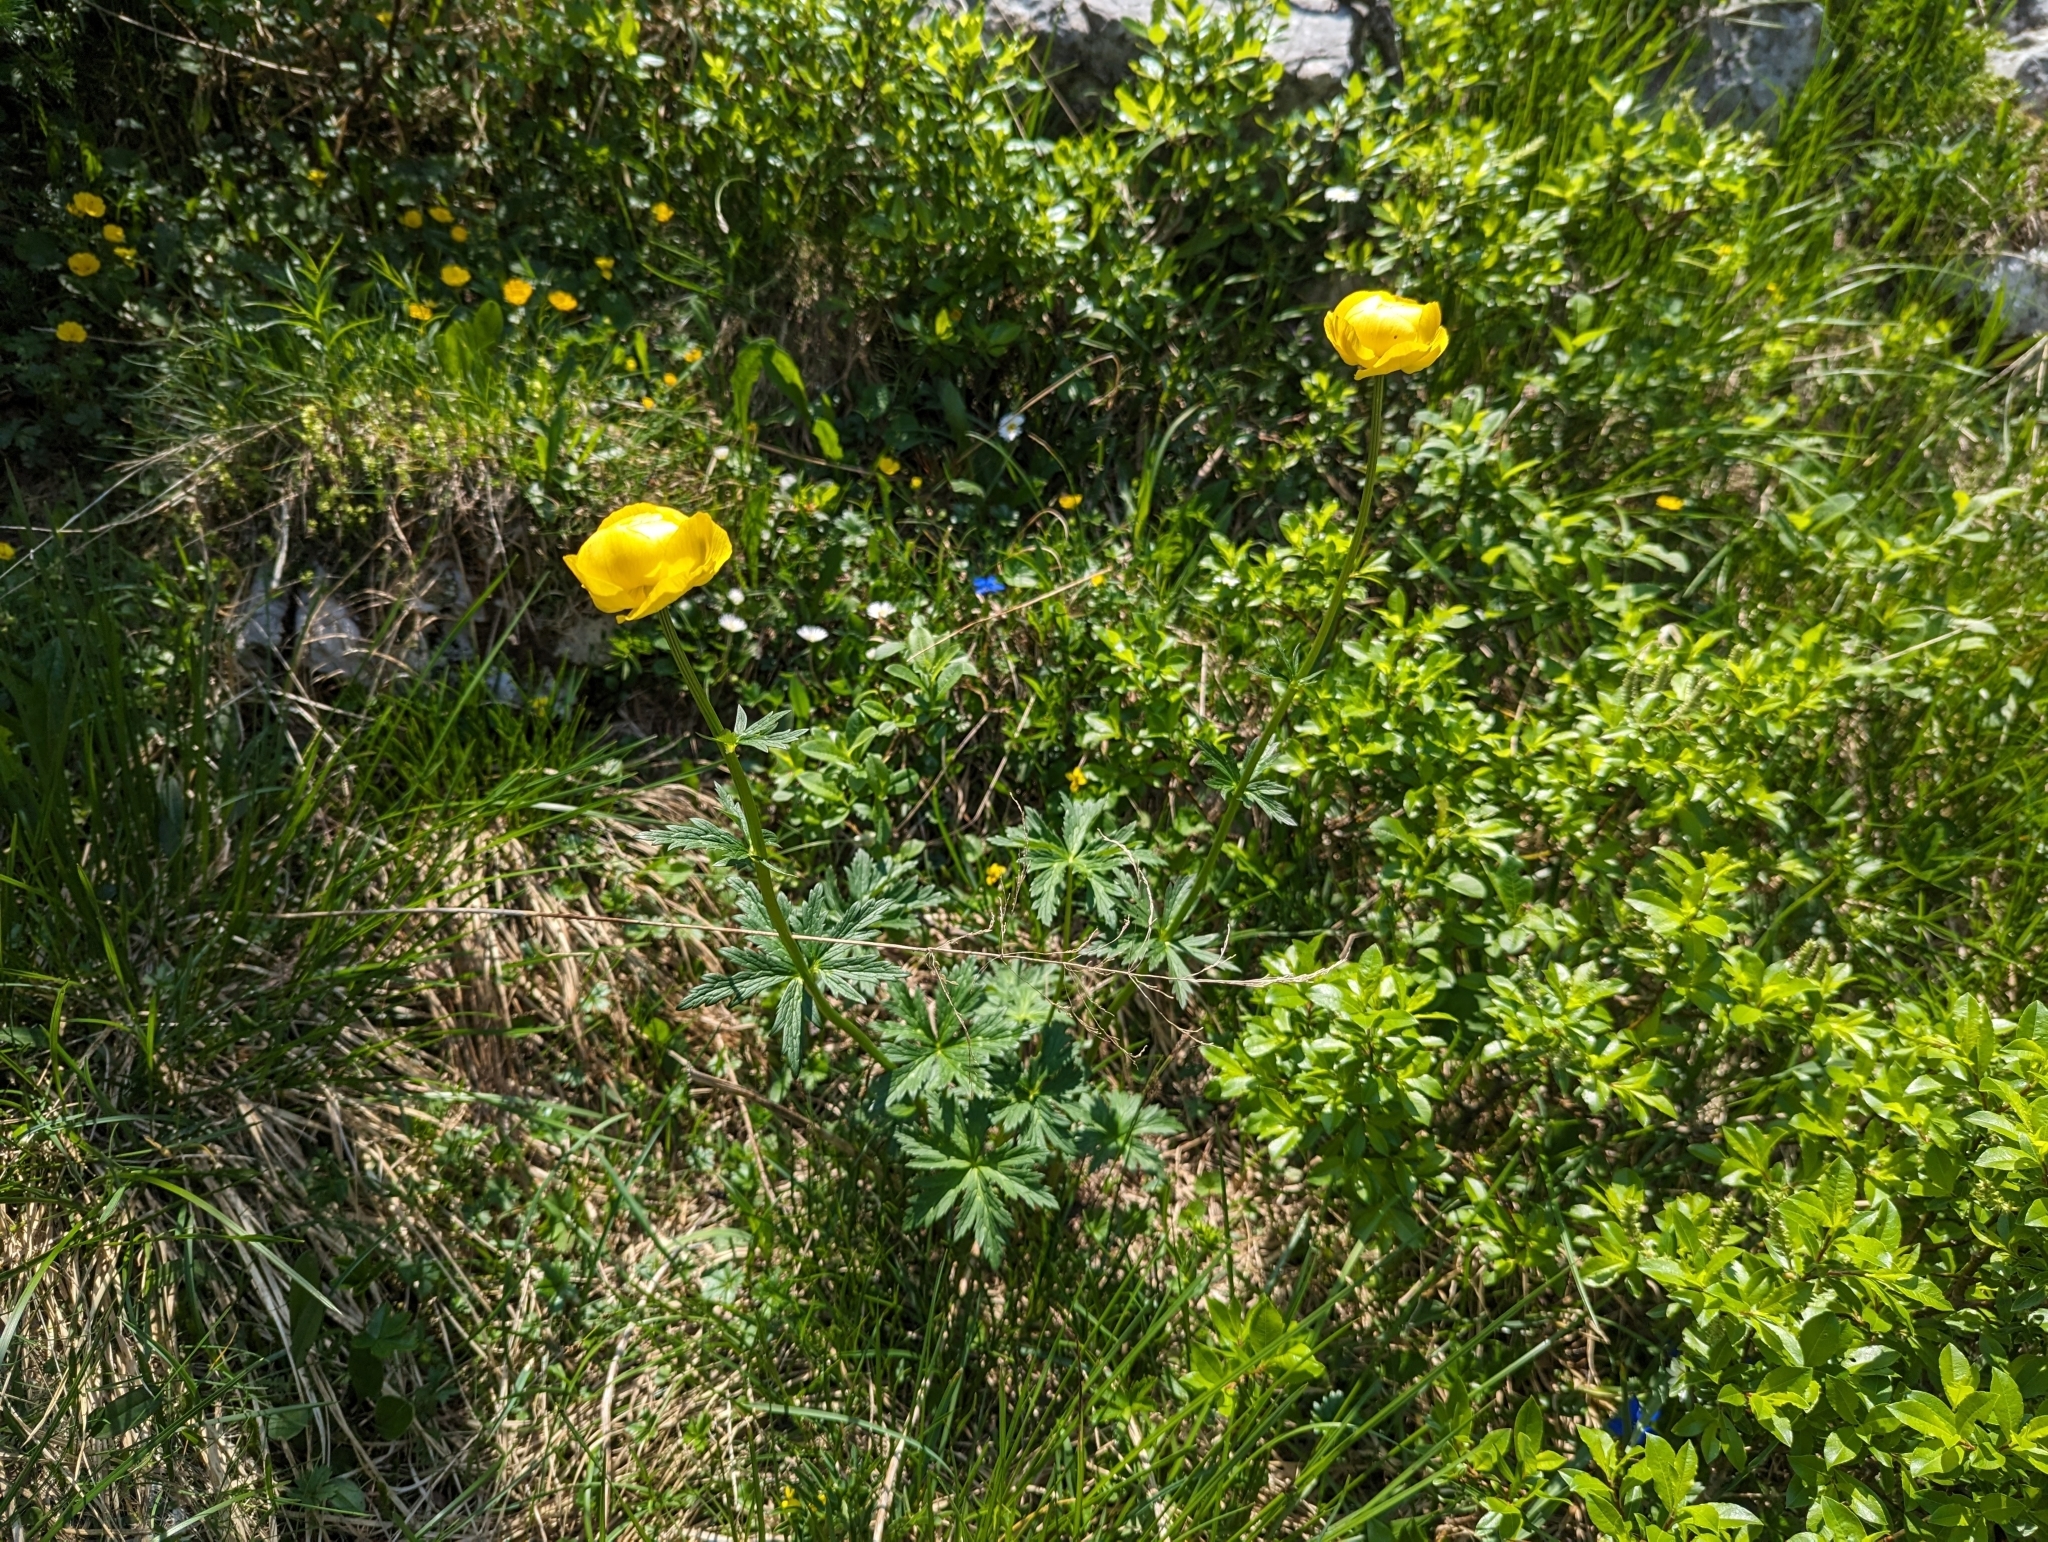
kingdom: Plantae
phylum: Tracheophyta
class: Magnoliopsida
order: Ranunculales
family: Ranunculaceae
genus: Trollius
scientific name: Trollius europaeus
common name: European globeflower
